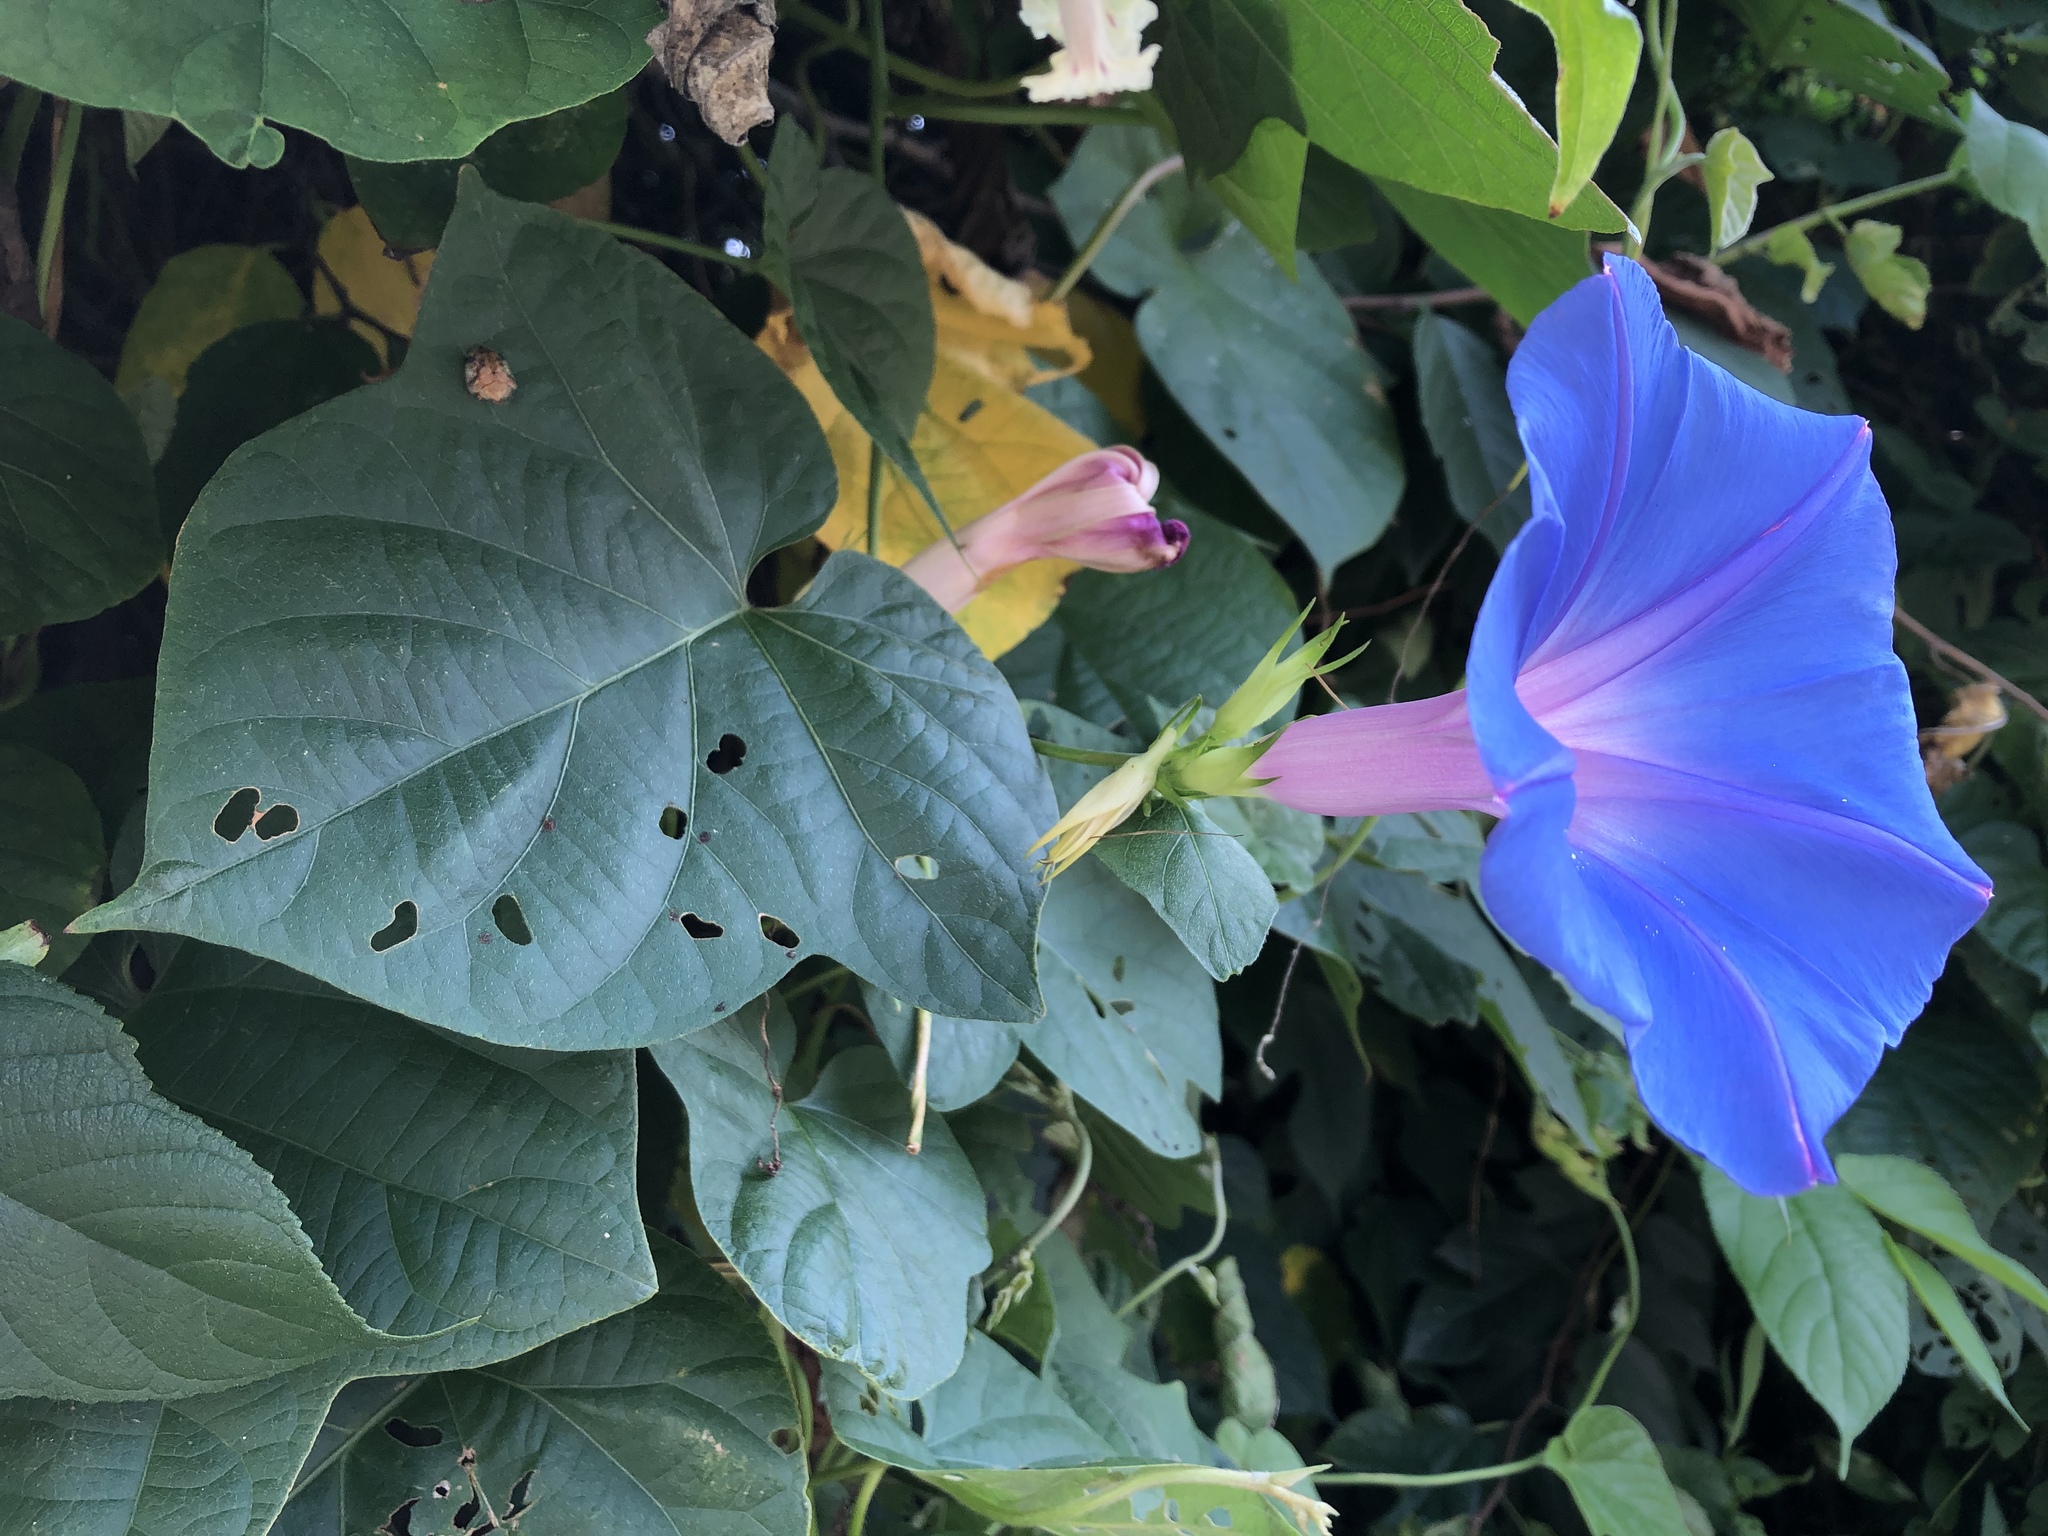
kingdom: Plantae
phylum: Tracheophyta
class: Magnoliopsida
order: Solanales
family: Convolvulaceae
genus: Ipomoea
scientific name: Ipomoea indica
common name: Blue dawnflower
